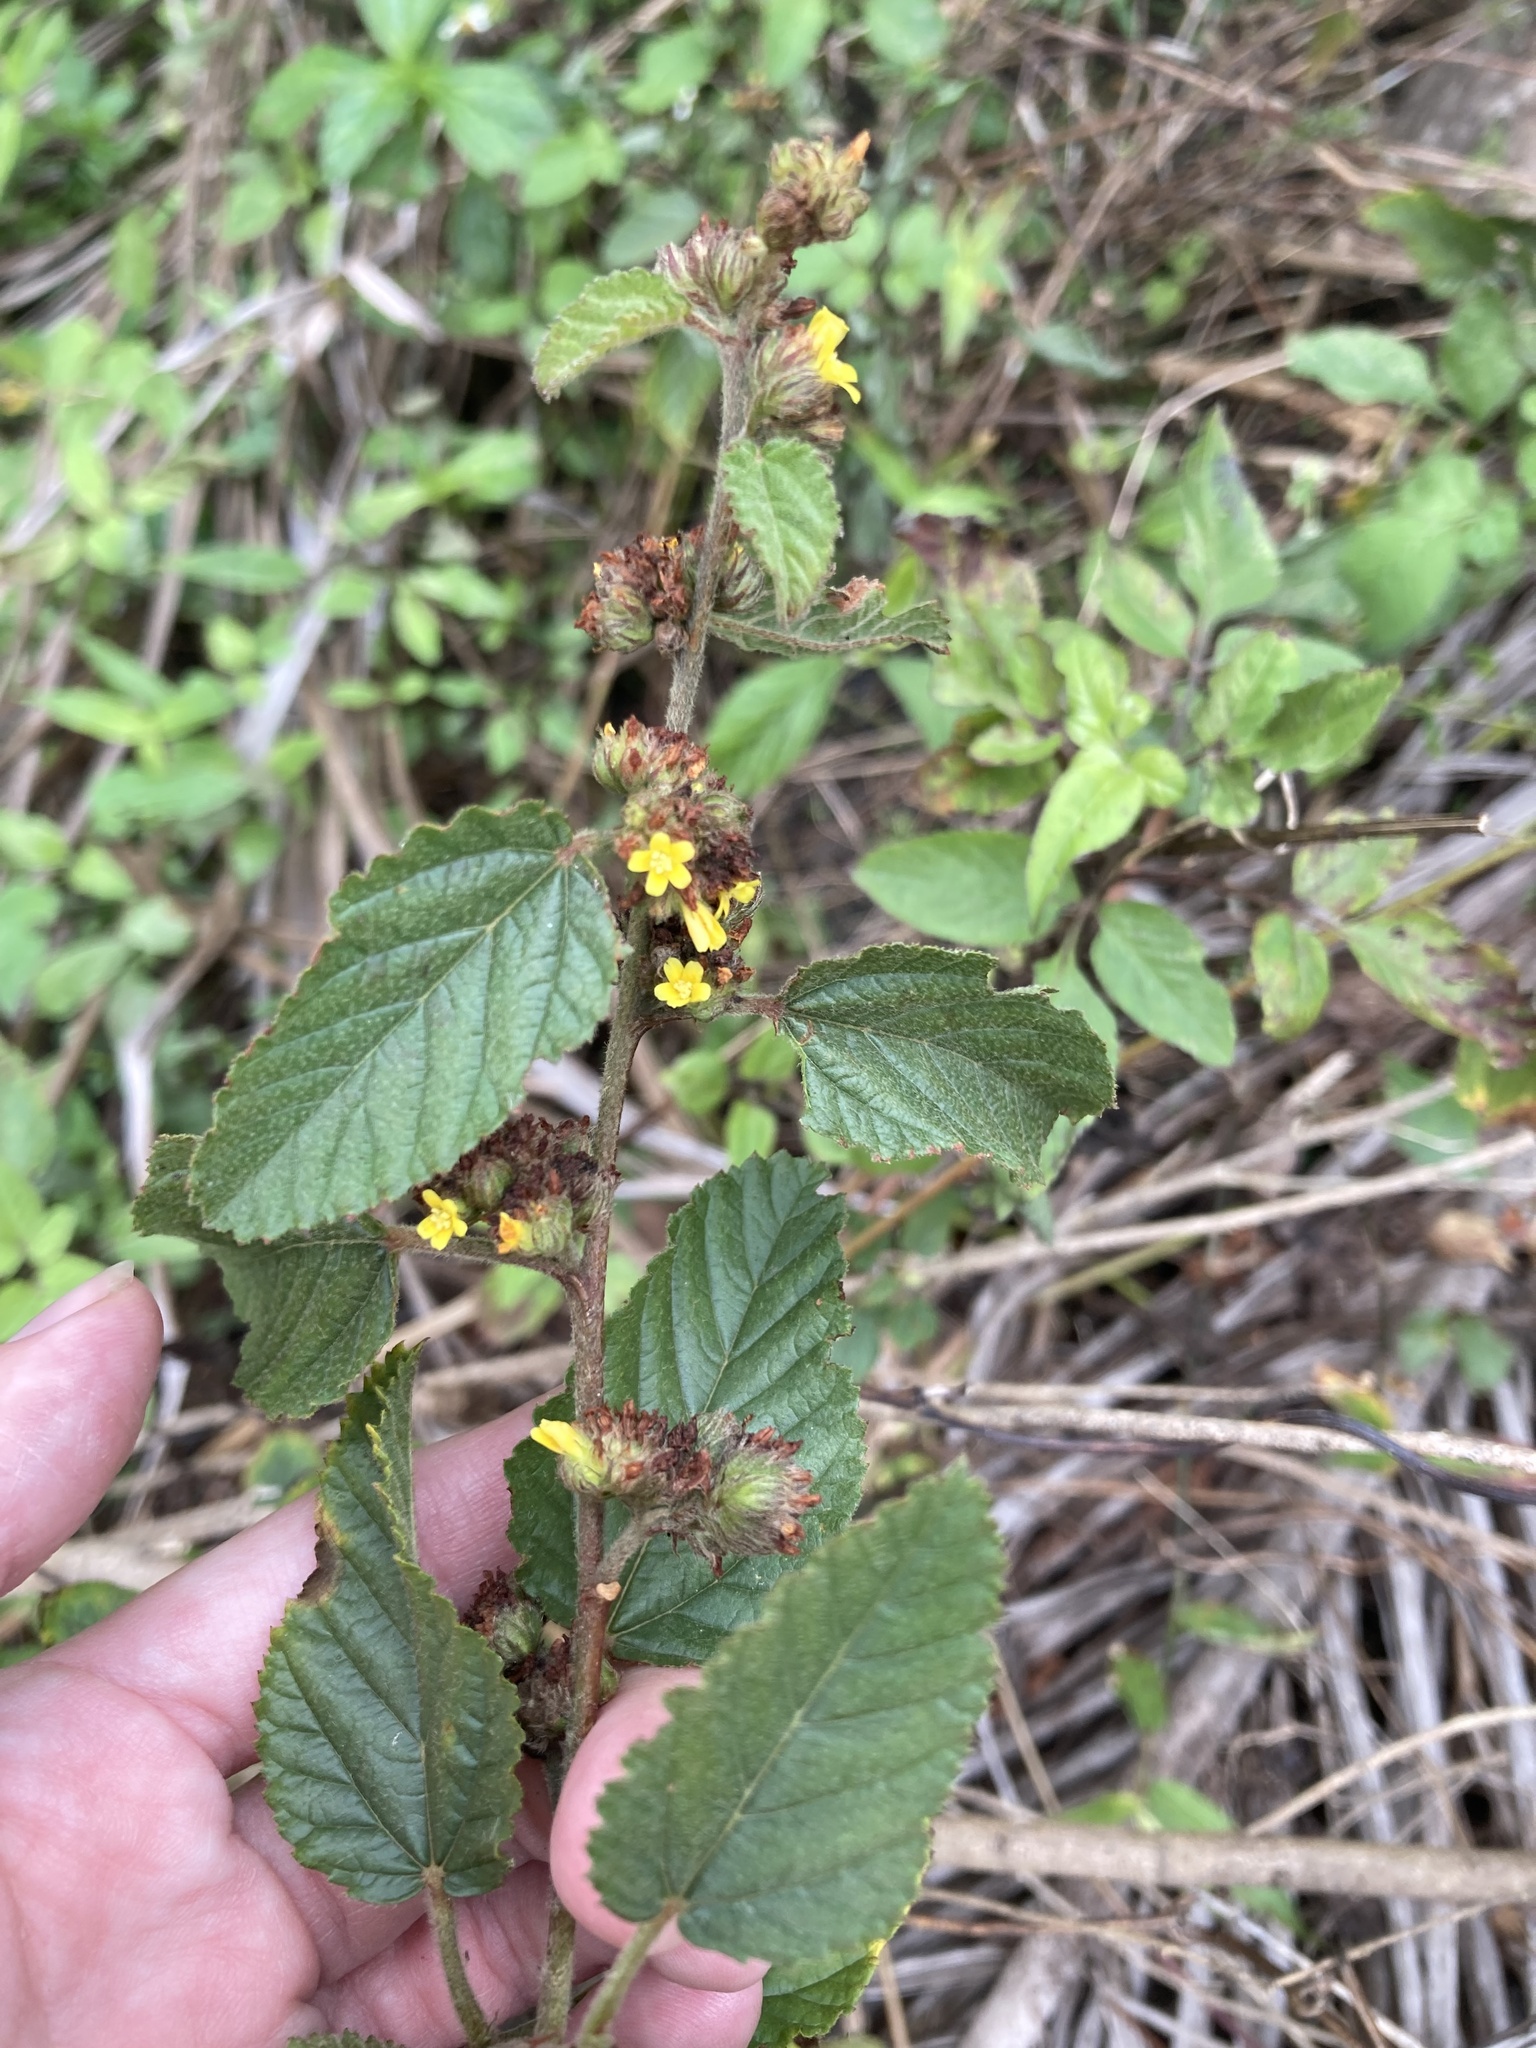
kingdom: Plantae
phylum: Tracheophyta
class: Magnoliopsida
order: Malvales
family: Malvaceae
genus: Waltheria
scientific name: Waltheria indica
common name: Leather-coat
